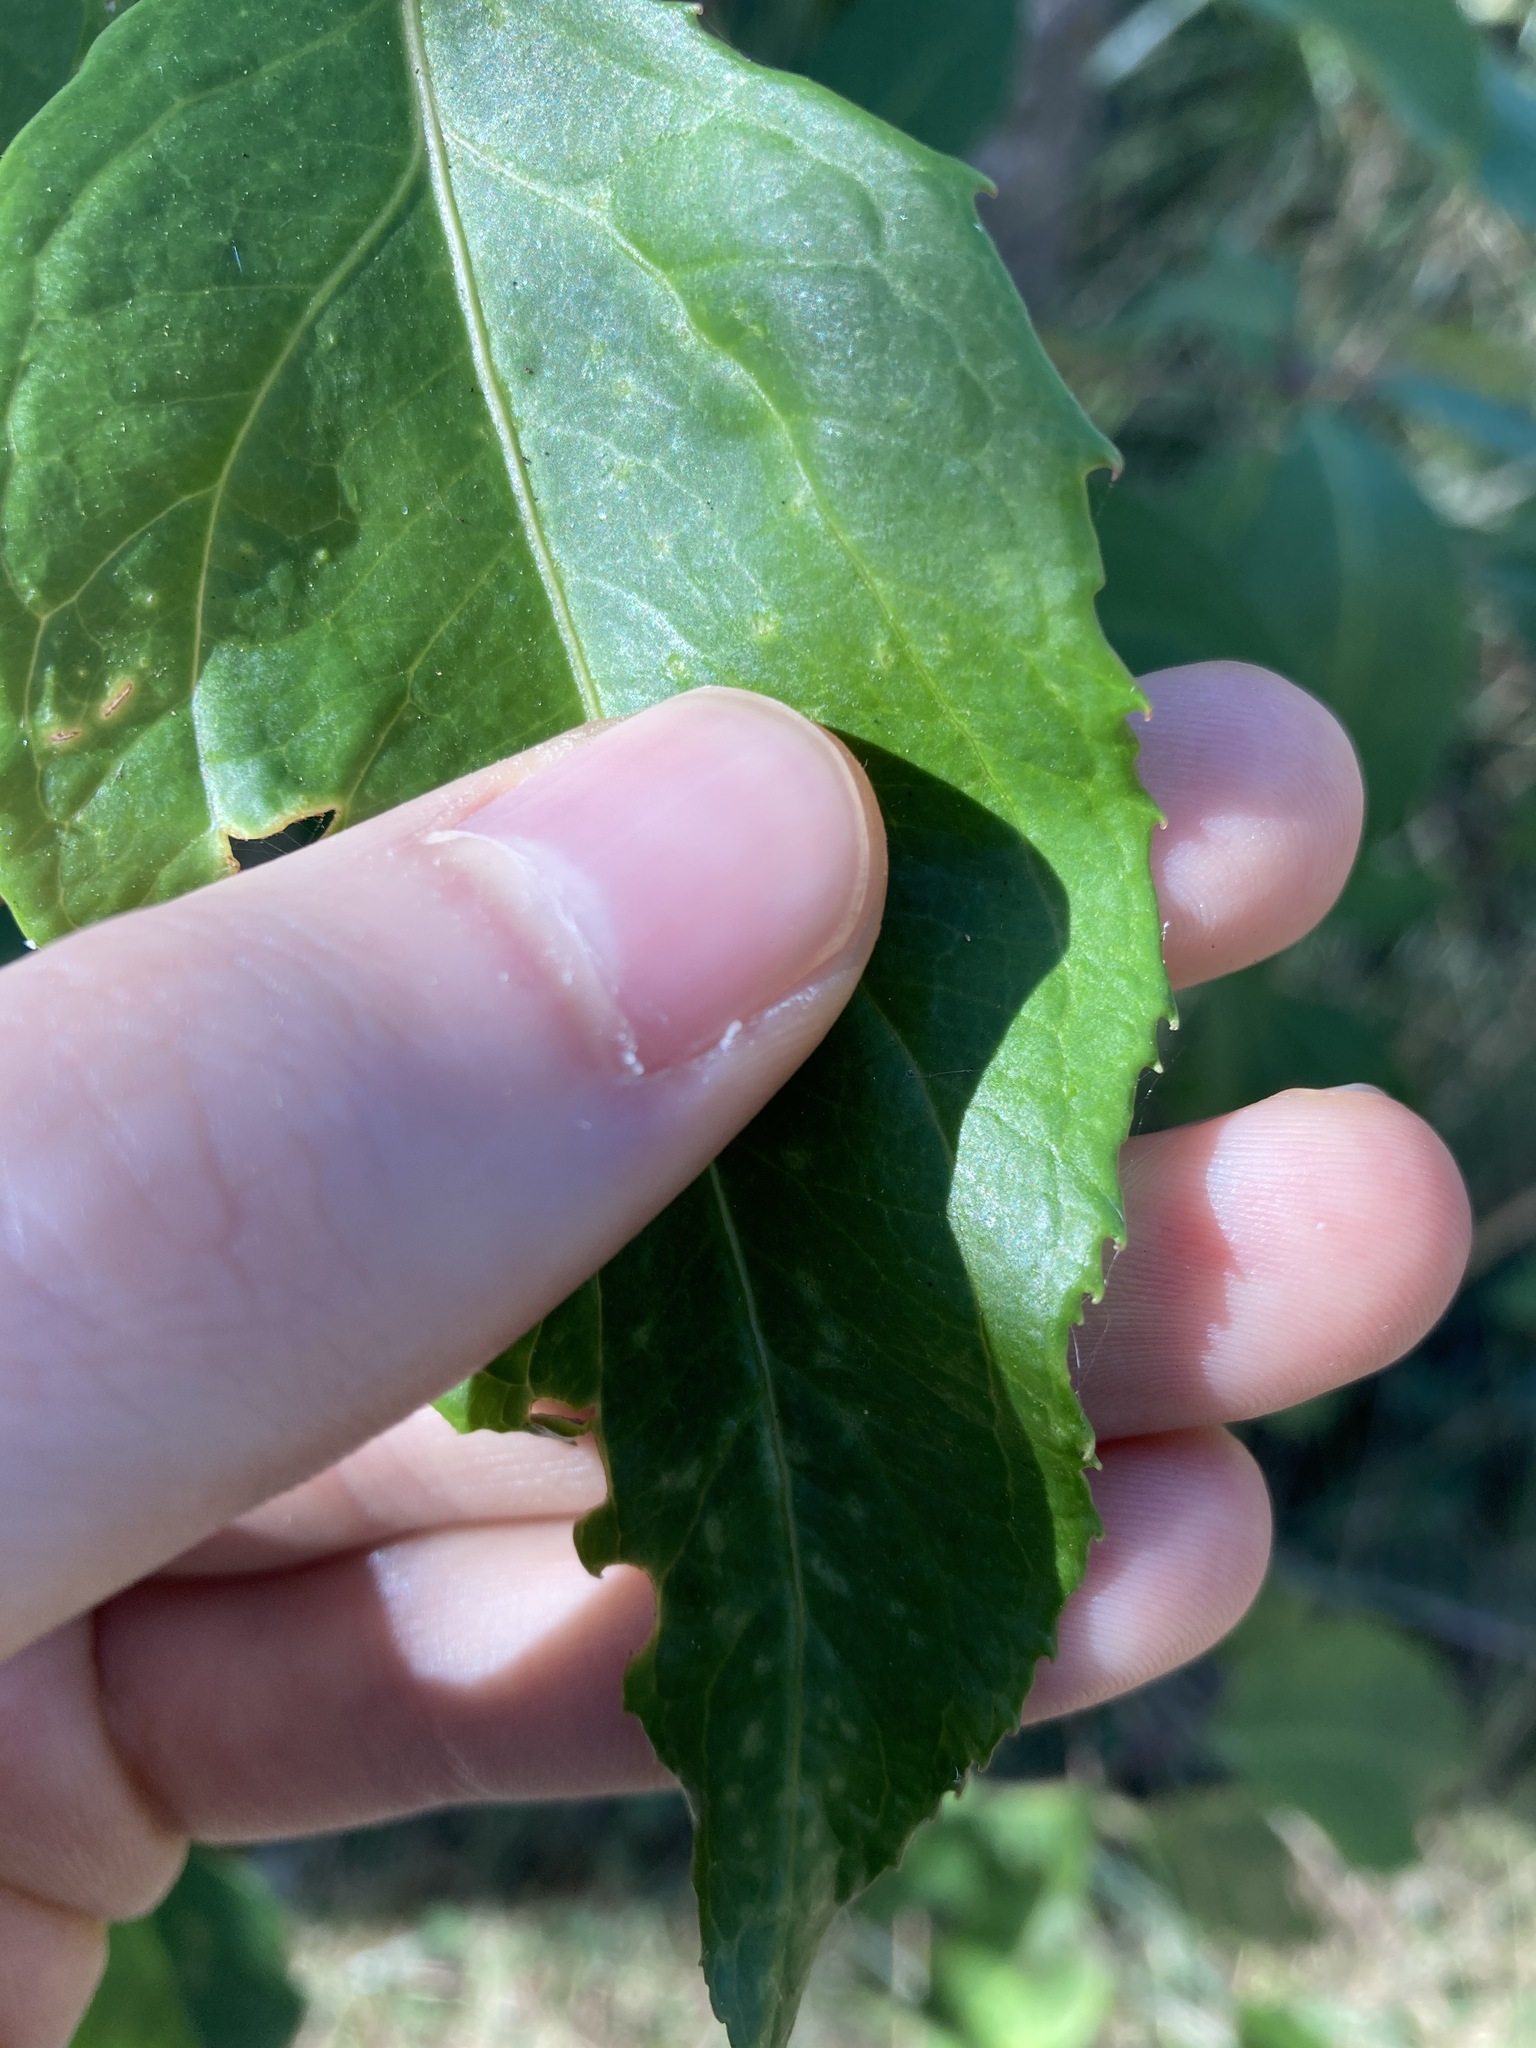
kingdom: Plantae
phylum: Tracheophyta
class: Magnoliopsida
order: Apiales
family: Araliaceae
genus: Polyscias
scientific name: Polyscias sambucifolia
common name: Elderberry-ash
